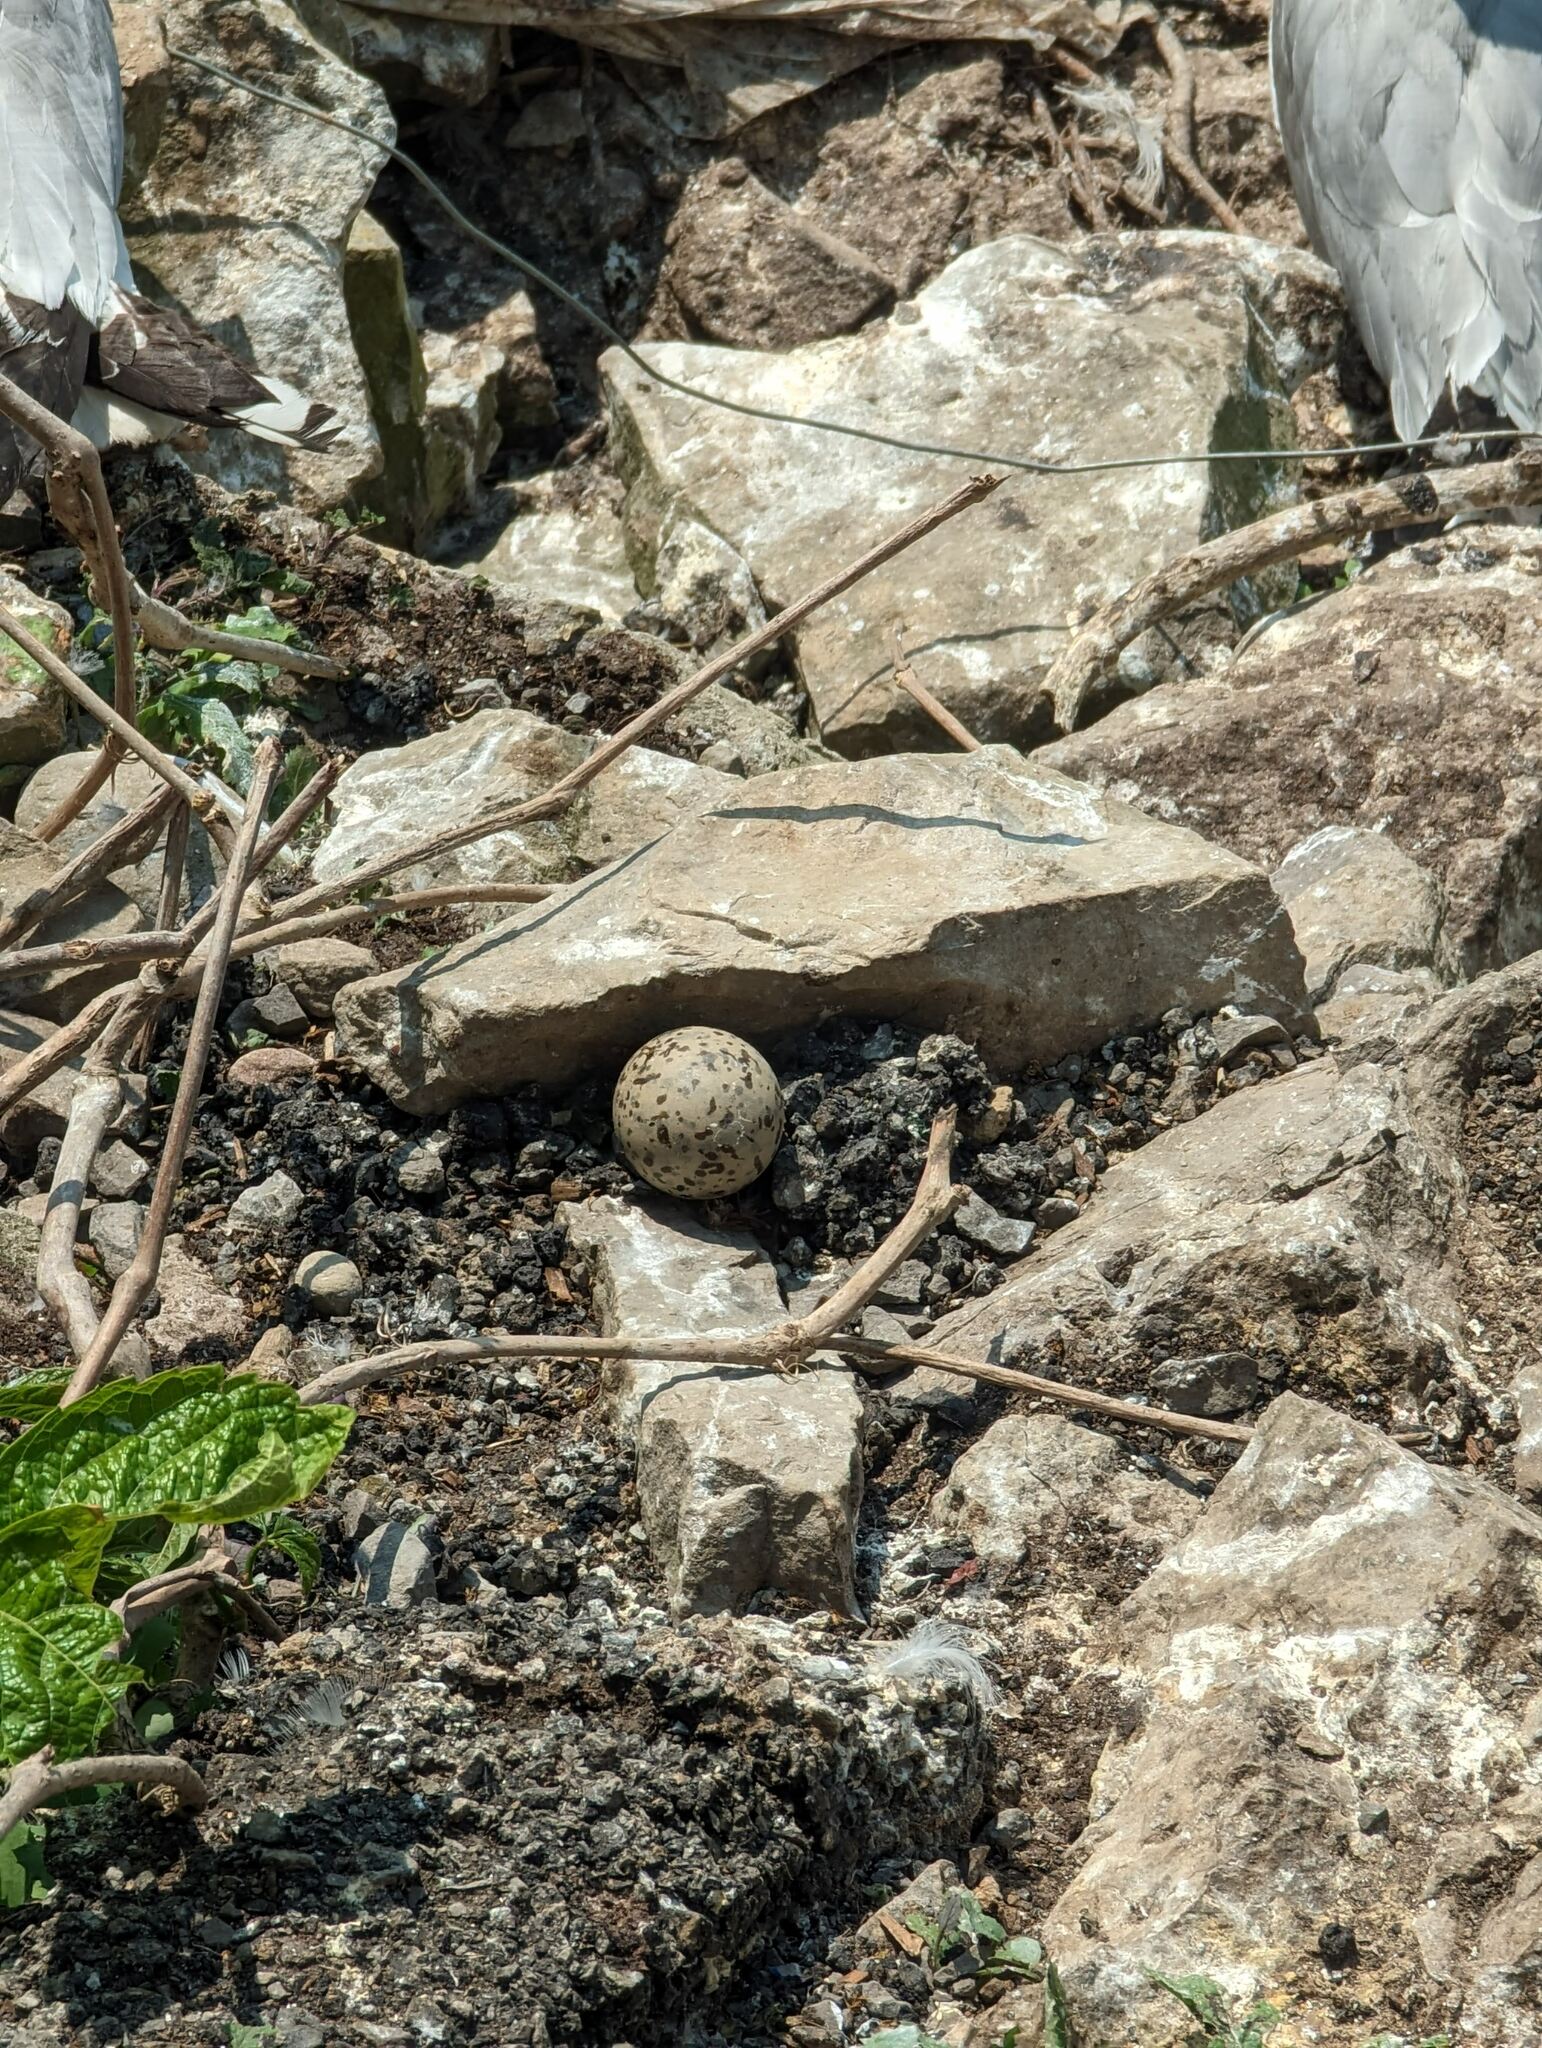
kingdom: Animalia
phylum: Chordata
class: Aves
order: Charadriiformes
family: Laridae
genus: Larus
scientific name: Larus delawarensis
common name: Ring-billed gull
